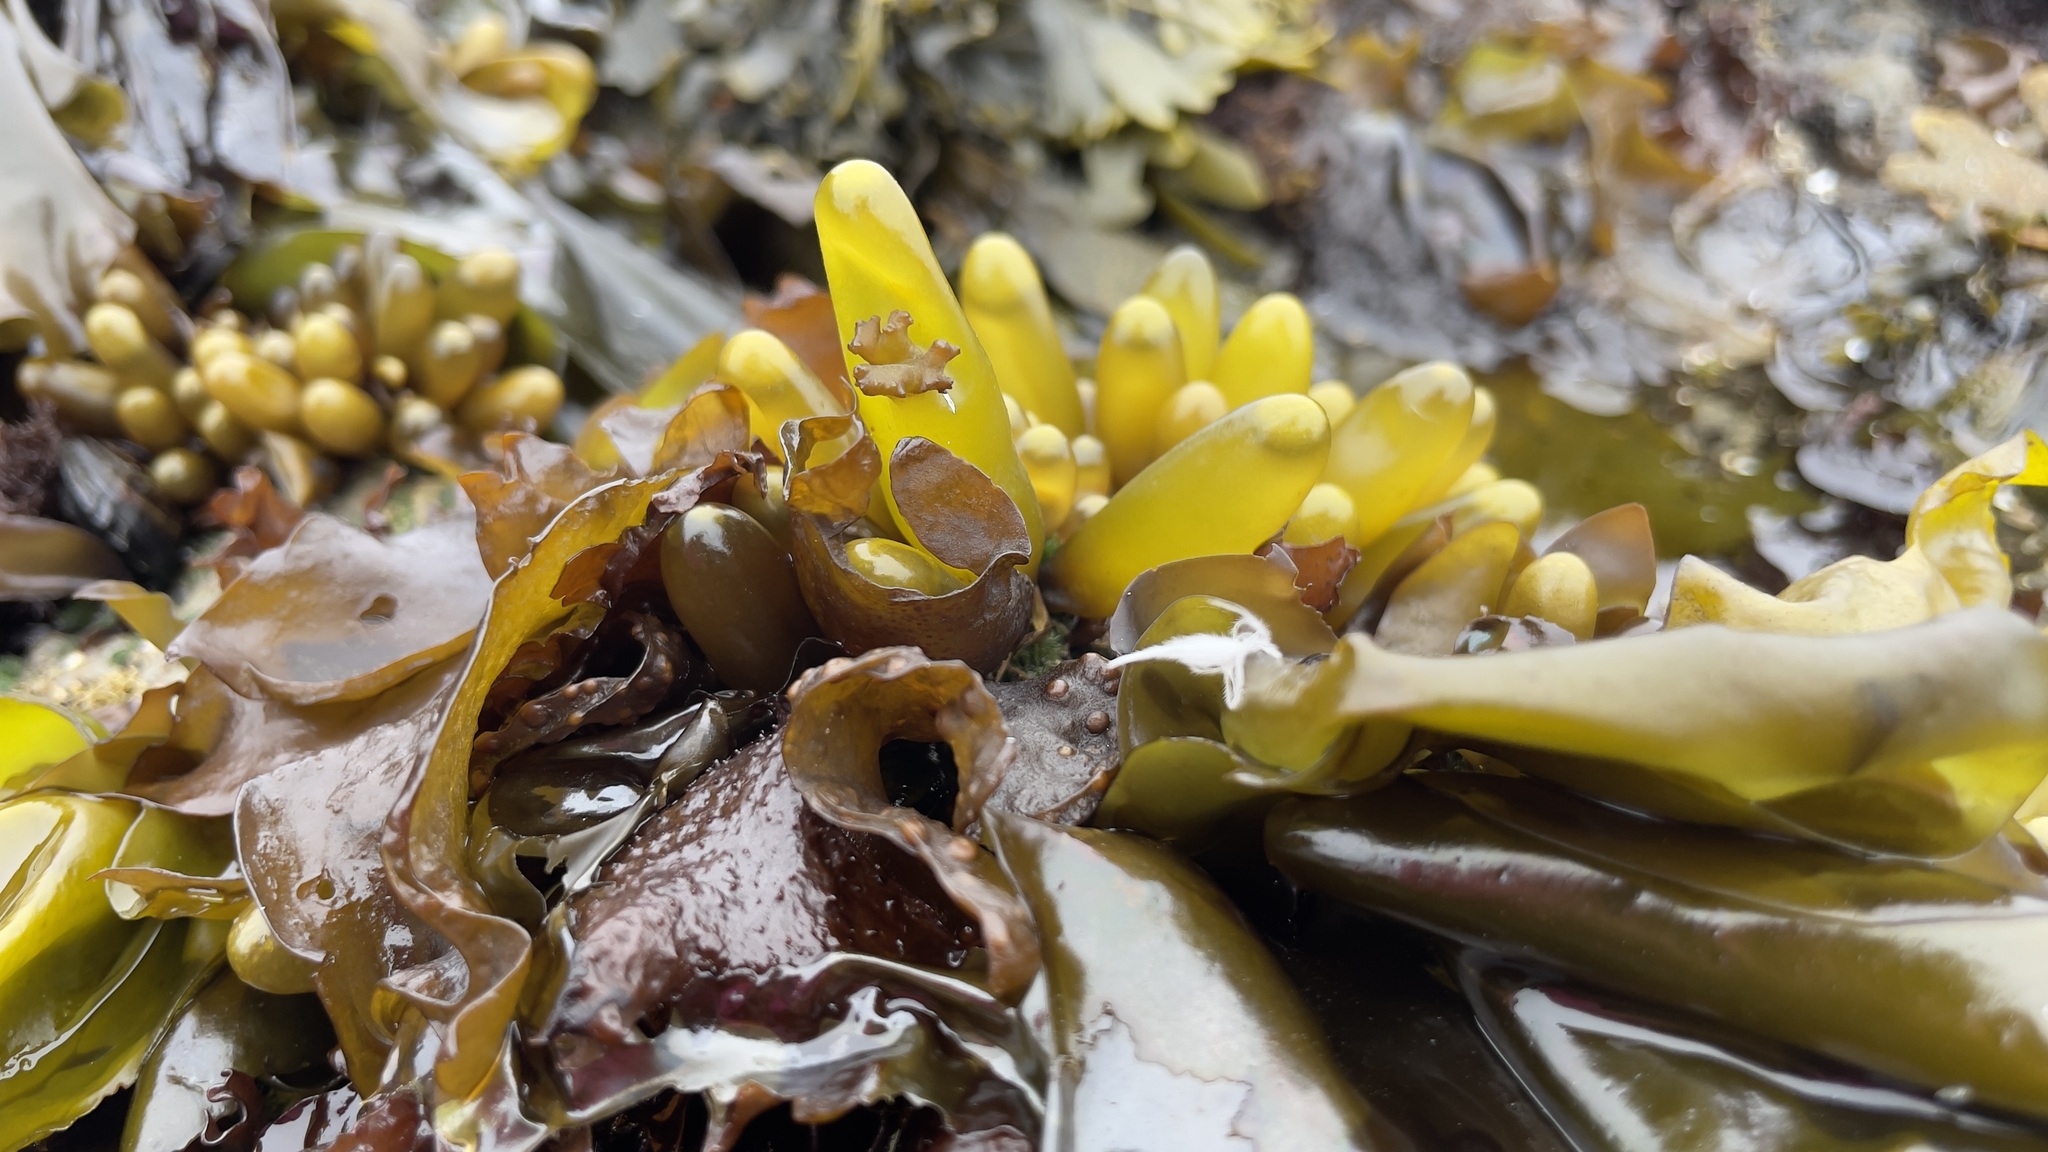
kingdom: Plantae
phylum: Rhodophyta
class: Florideophyceae
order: Palmariales
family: Palmariaceae
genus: Halosaccion
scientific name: Halosaccion glandiforme
